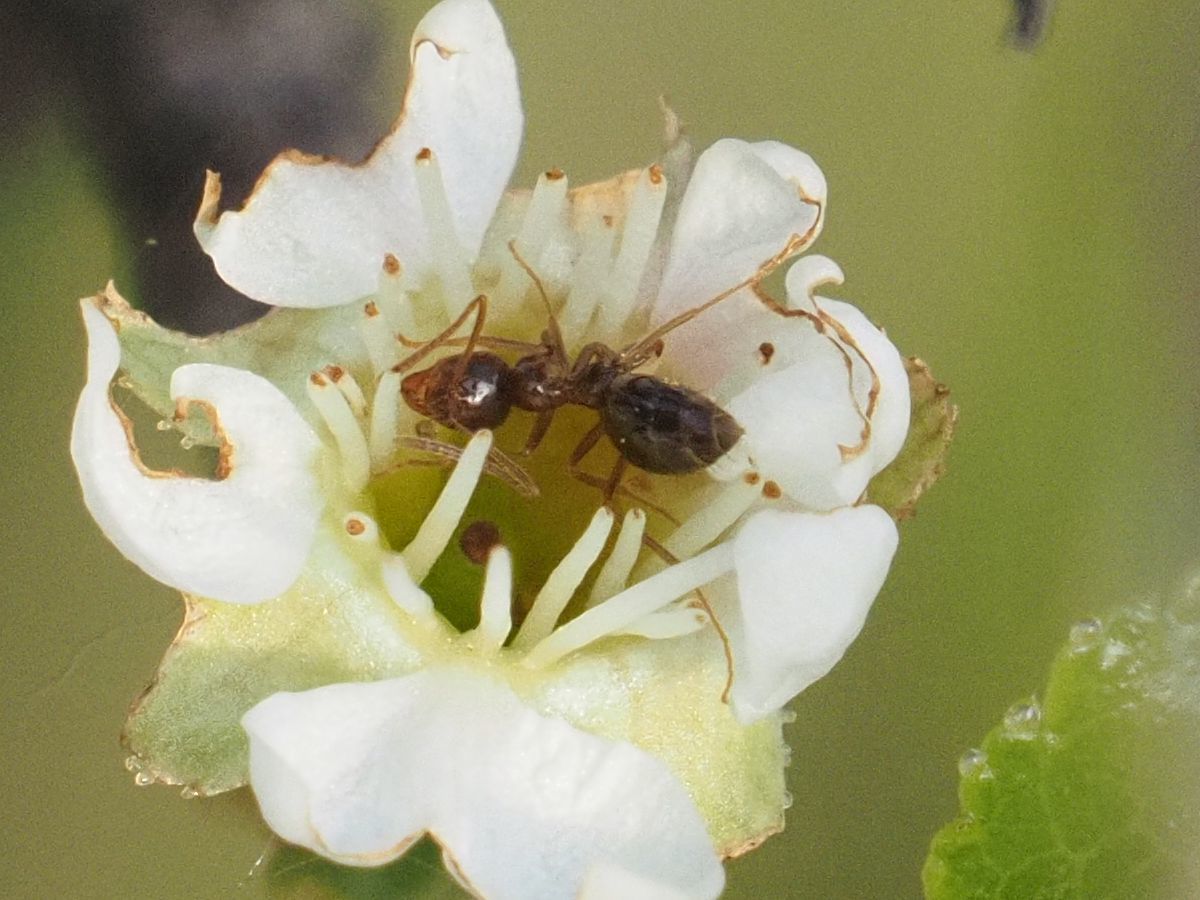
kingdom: Animalia
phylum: Arthropoda
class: Insecta
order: Hymenoptera
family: Formicidae
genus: Prenolepis
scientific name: Prenolepis nitens
